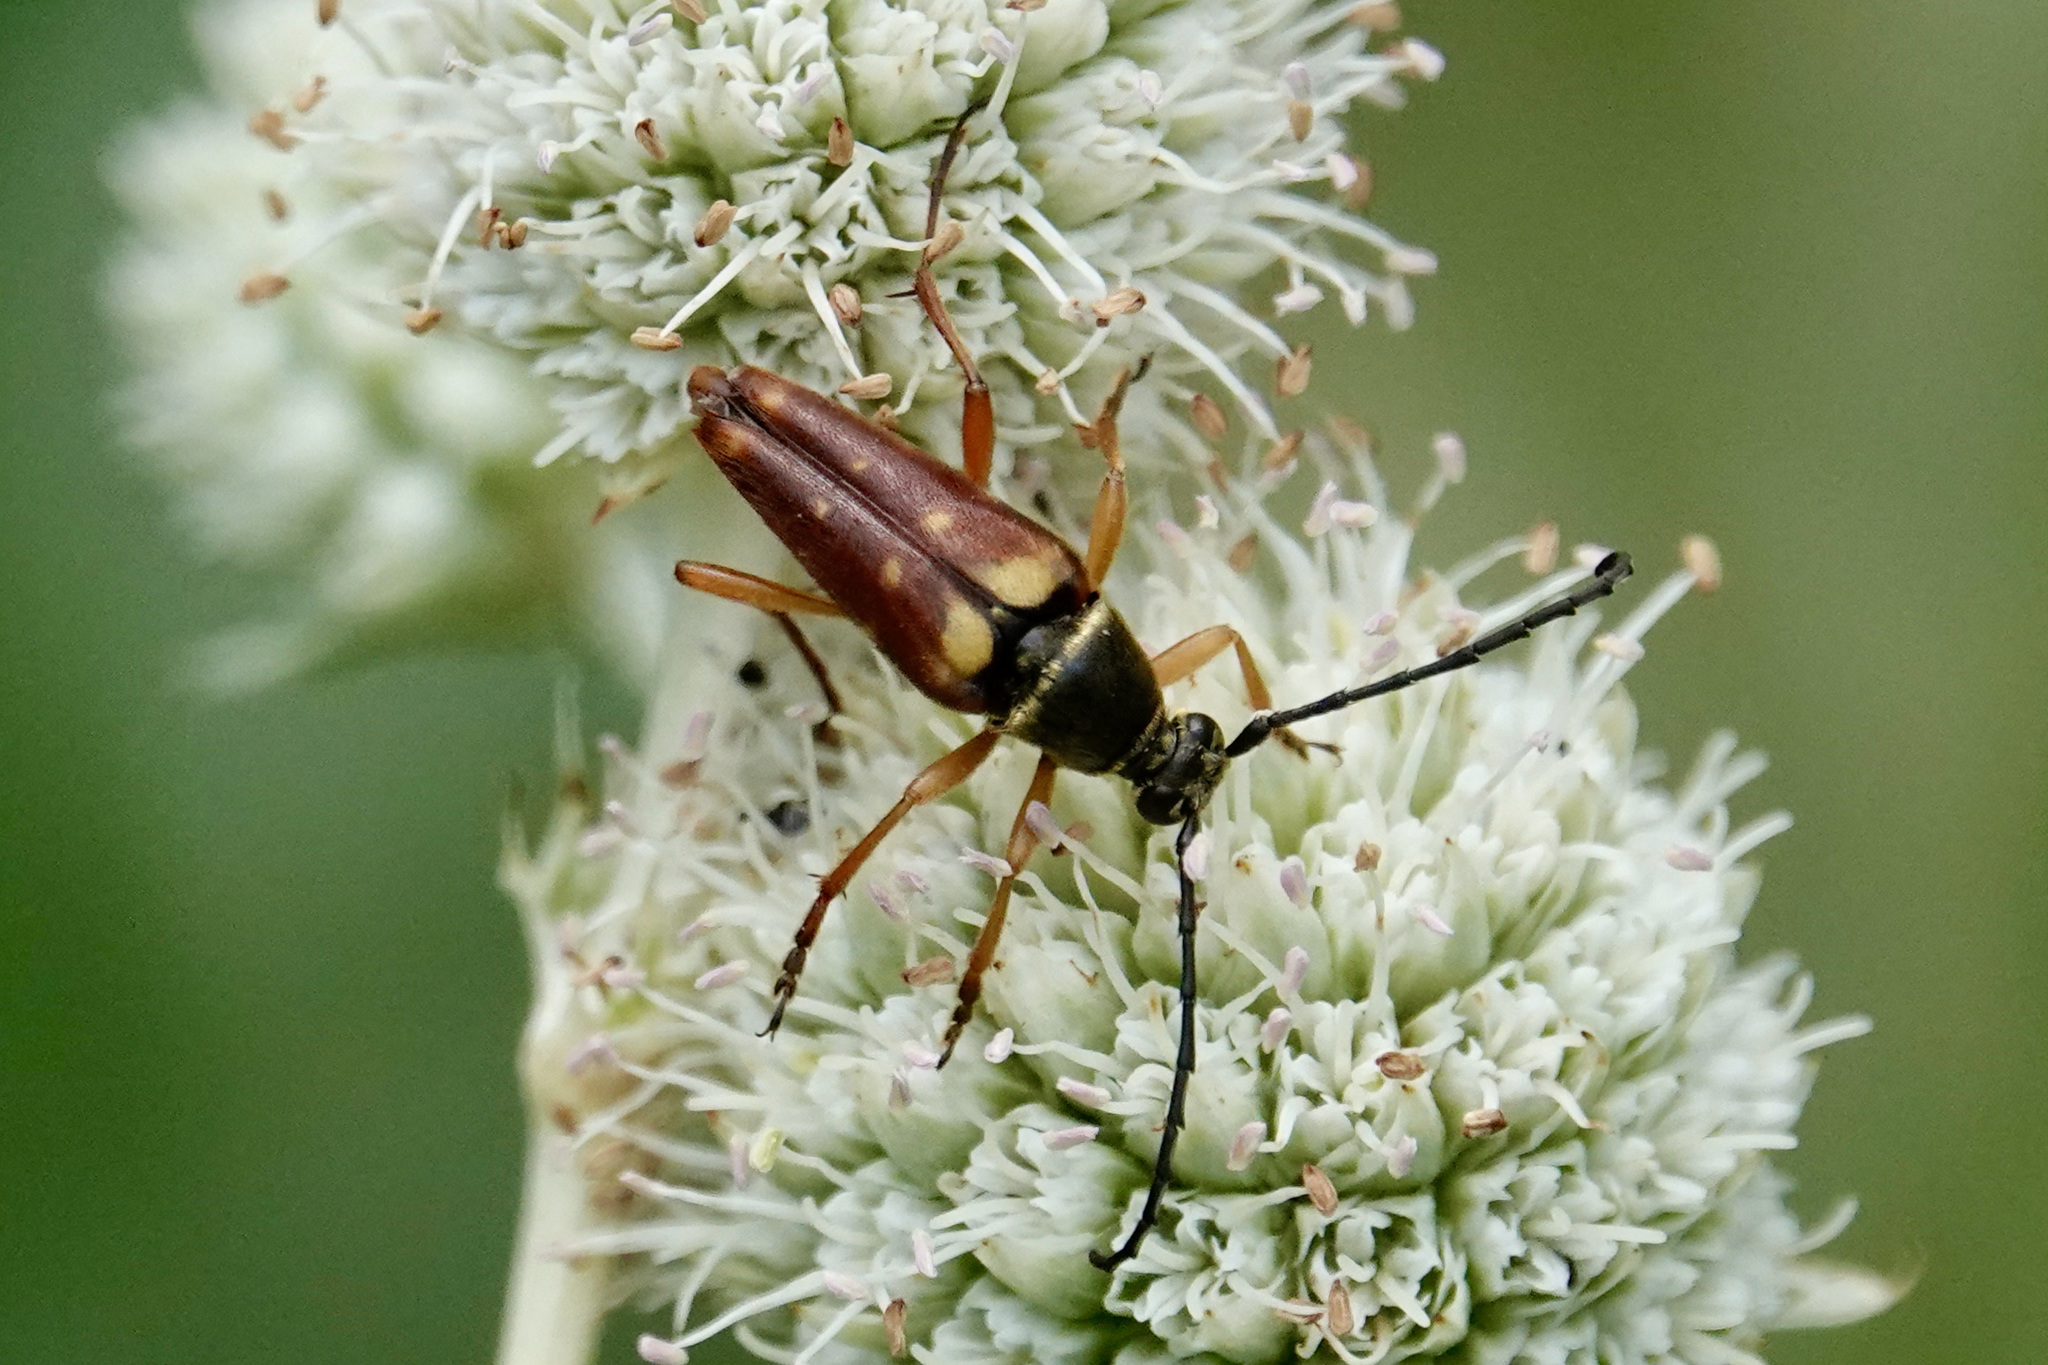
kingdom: Animalia
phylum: Arthropoda
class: Insecta
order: Coleoptera
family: Cerambycidae
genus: Typocerus
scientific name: Typocerus velutinus
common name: Banded longhorn beetle
